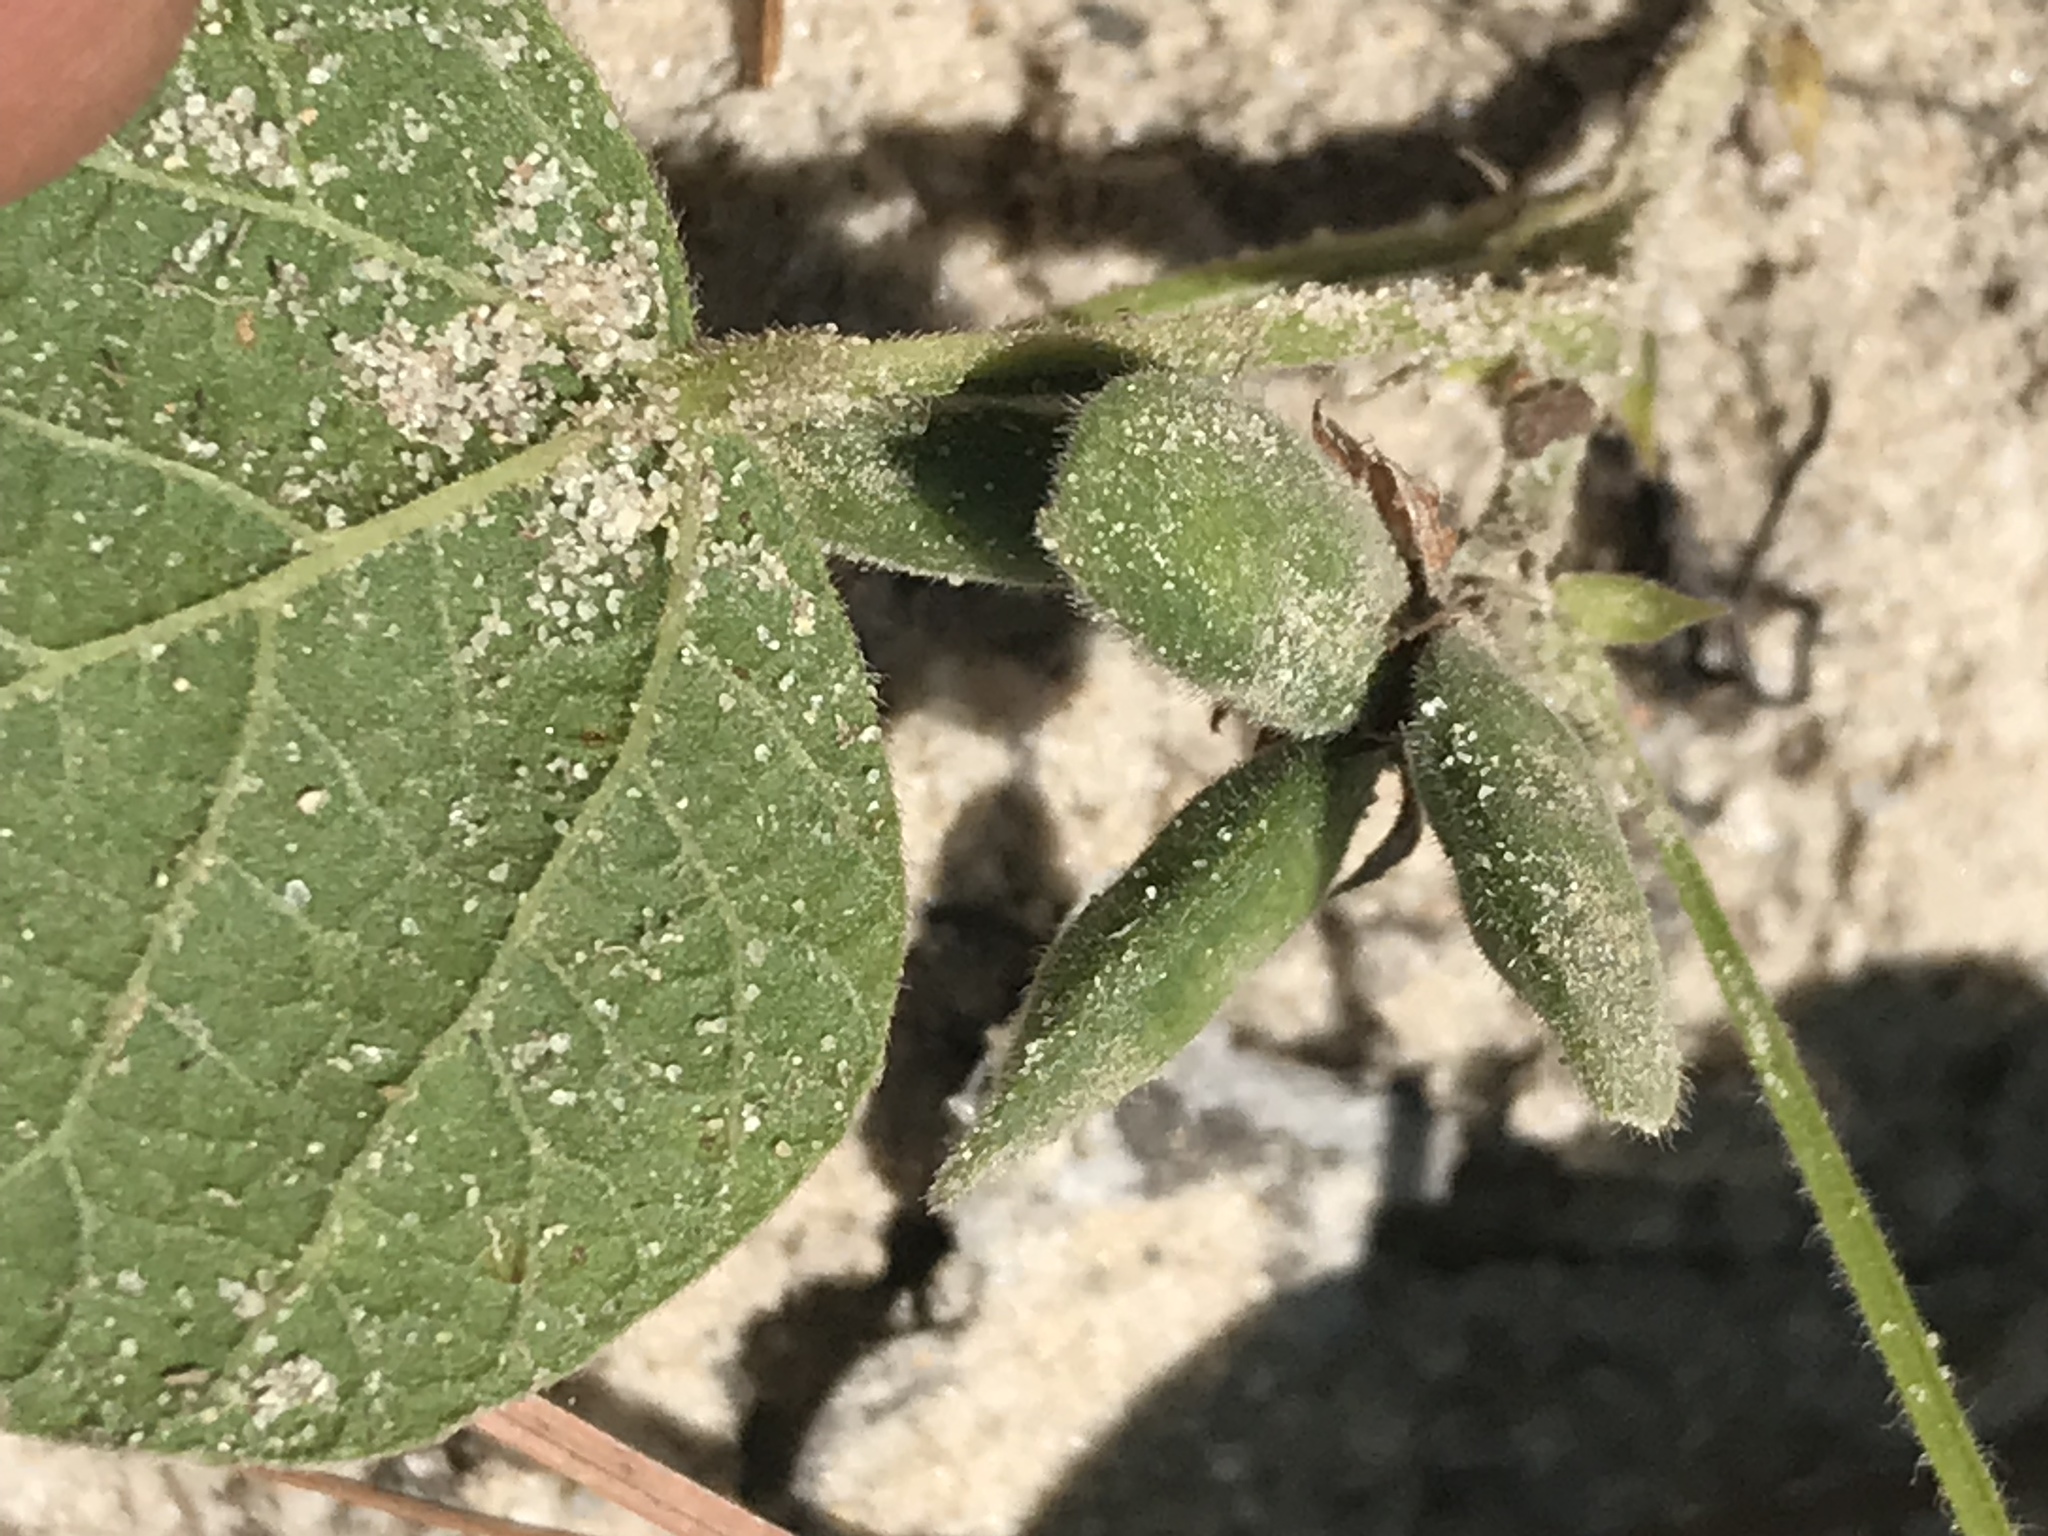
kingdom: Plantae
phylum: Tracheophyta
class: Magnoliopsida
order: Fabales
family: Fabaceae
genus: Rhynchosia
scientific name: Rhynchosia reniformis
